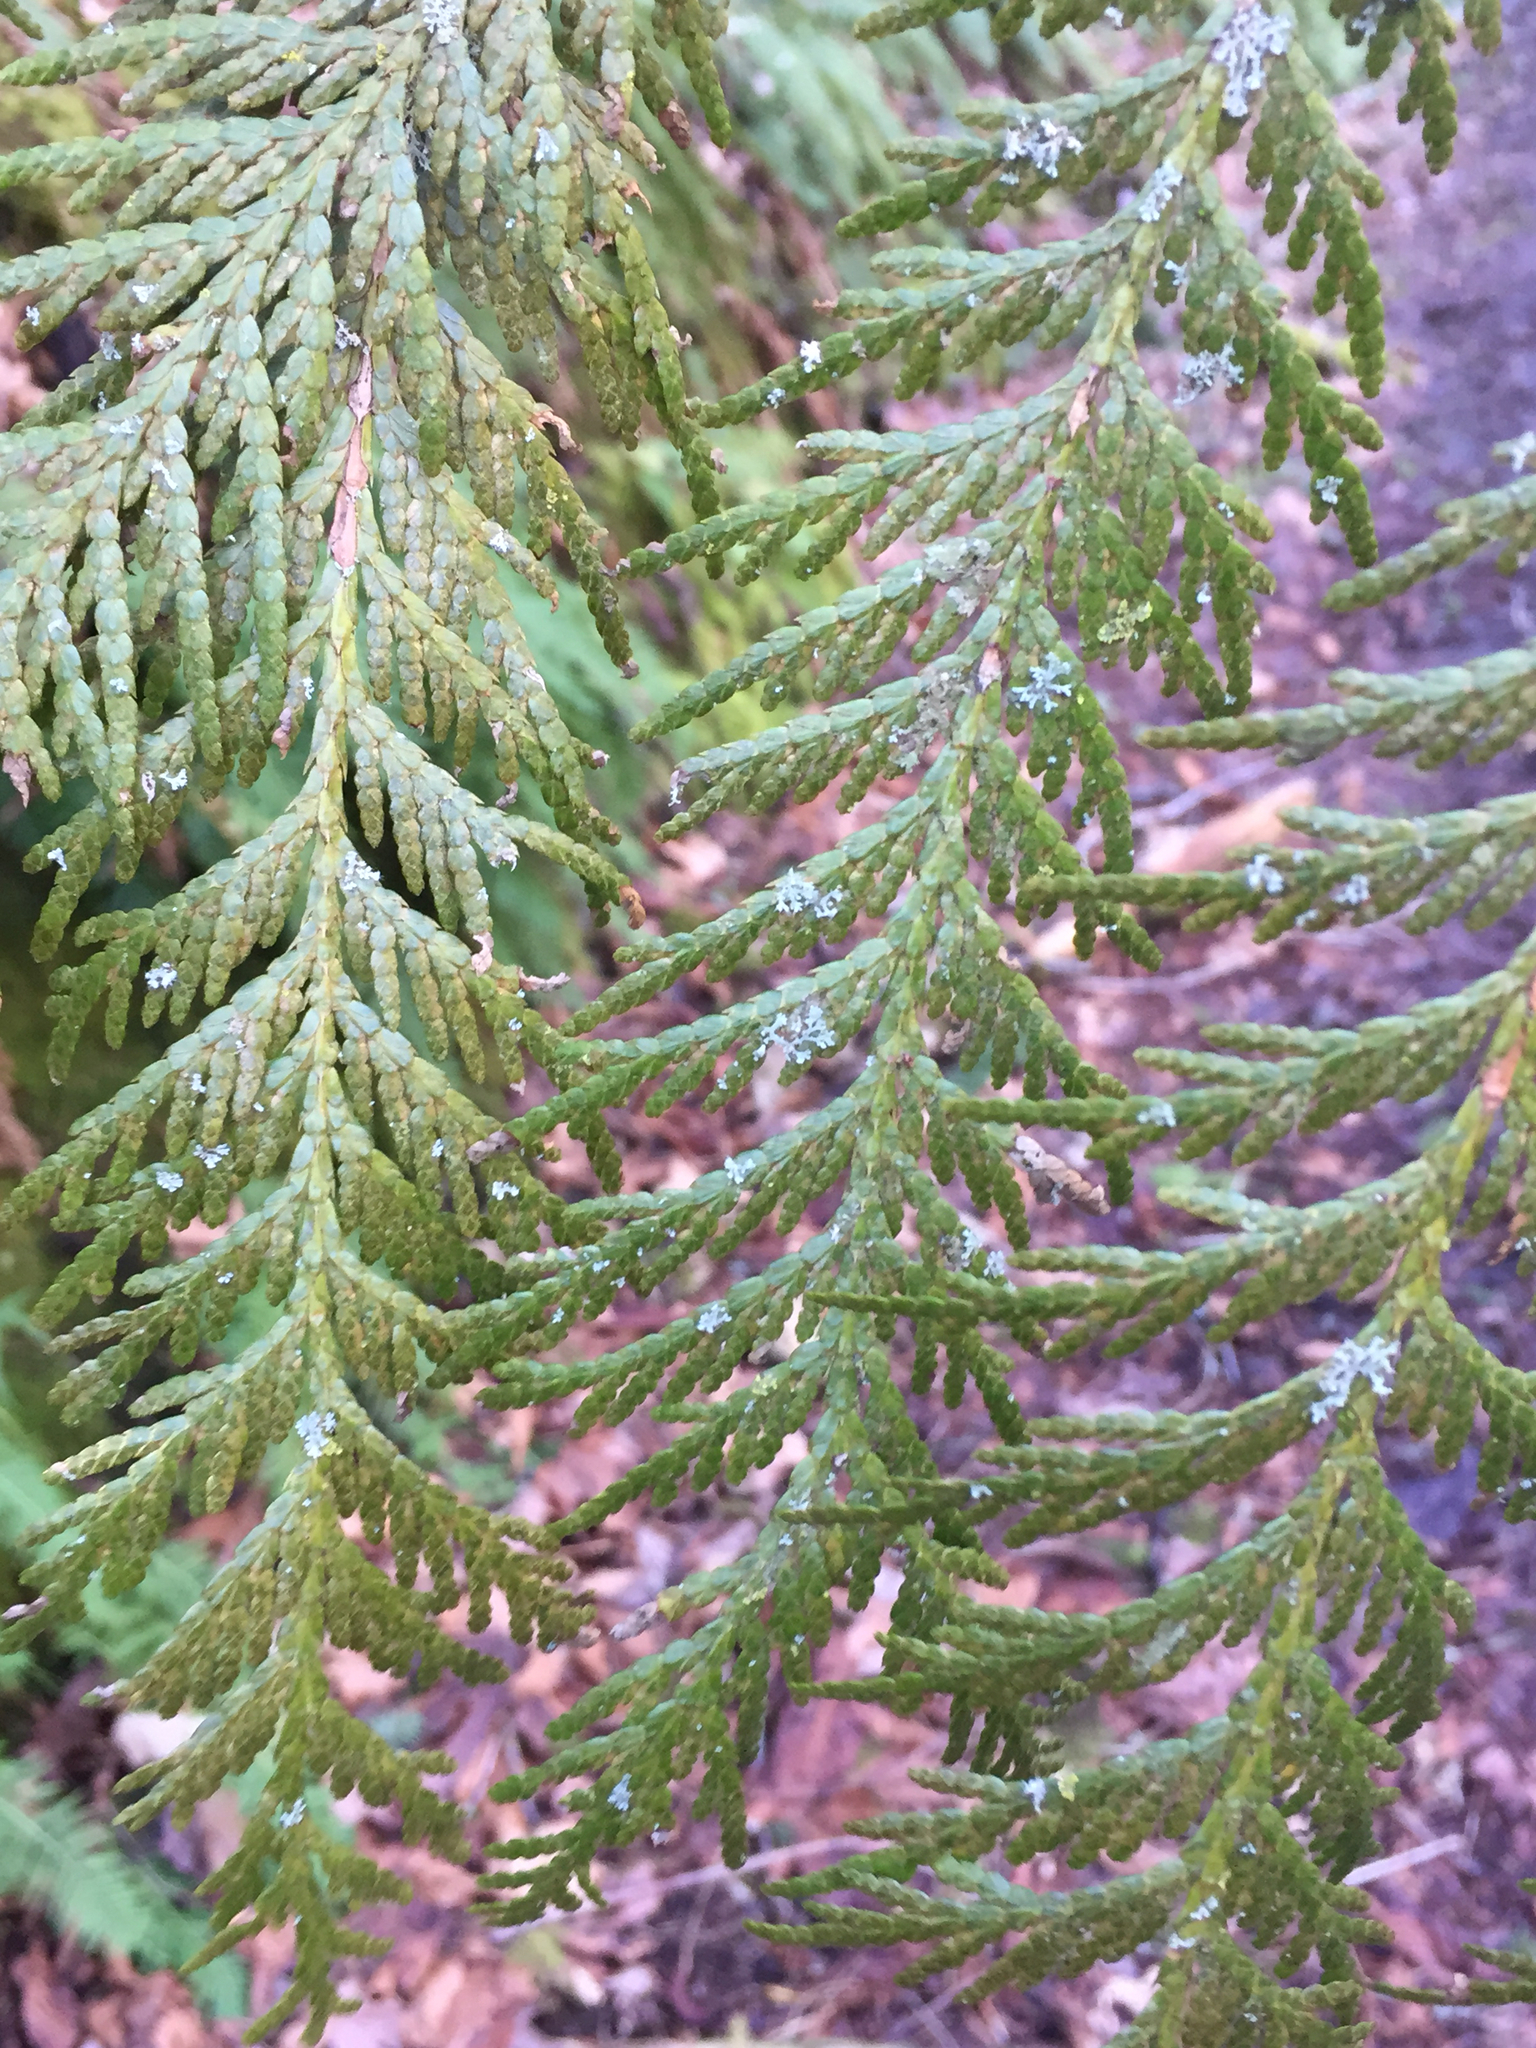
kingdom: Plantae
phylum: Tracheophyta
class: Pinopsida
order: Pinales
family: Cupressaceae
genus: Thuja
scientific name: Thuja plicata
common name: Western red-cedar
